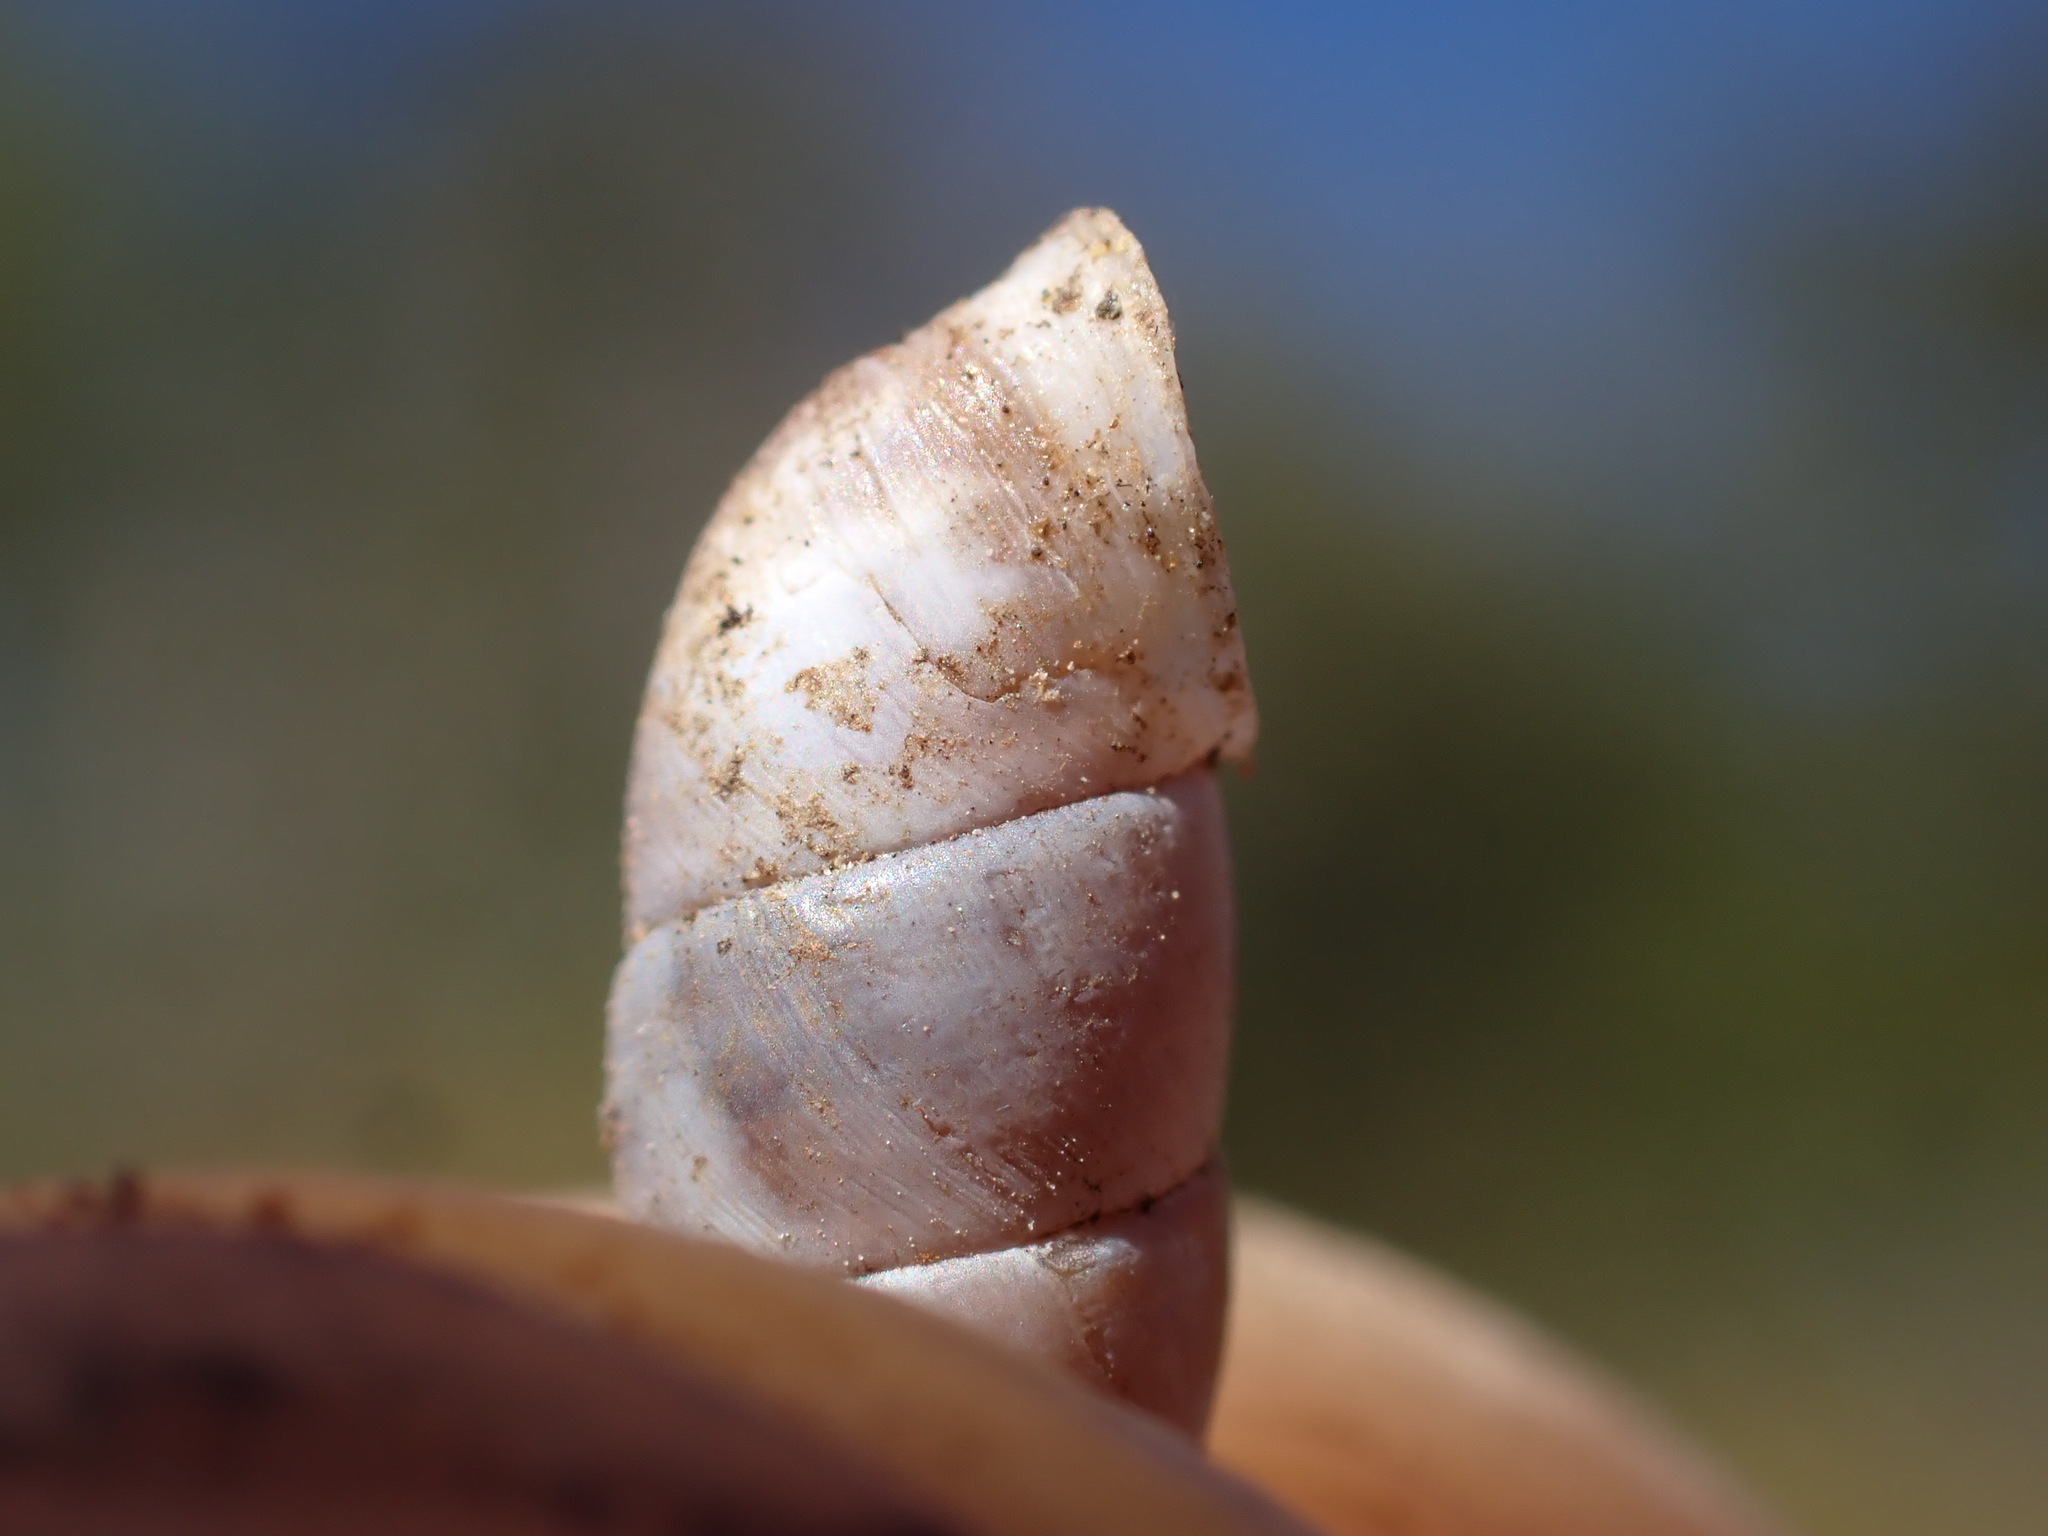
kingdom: Animalia
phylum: Mollusca
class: Gastropoda
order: Stylommatophora
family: Chondrinidae
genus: Solatopupa
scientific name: Solatopupa similis
